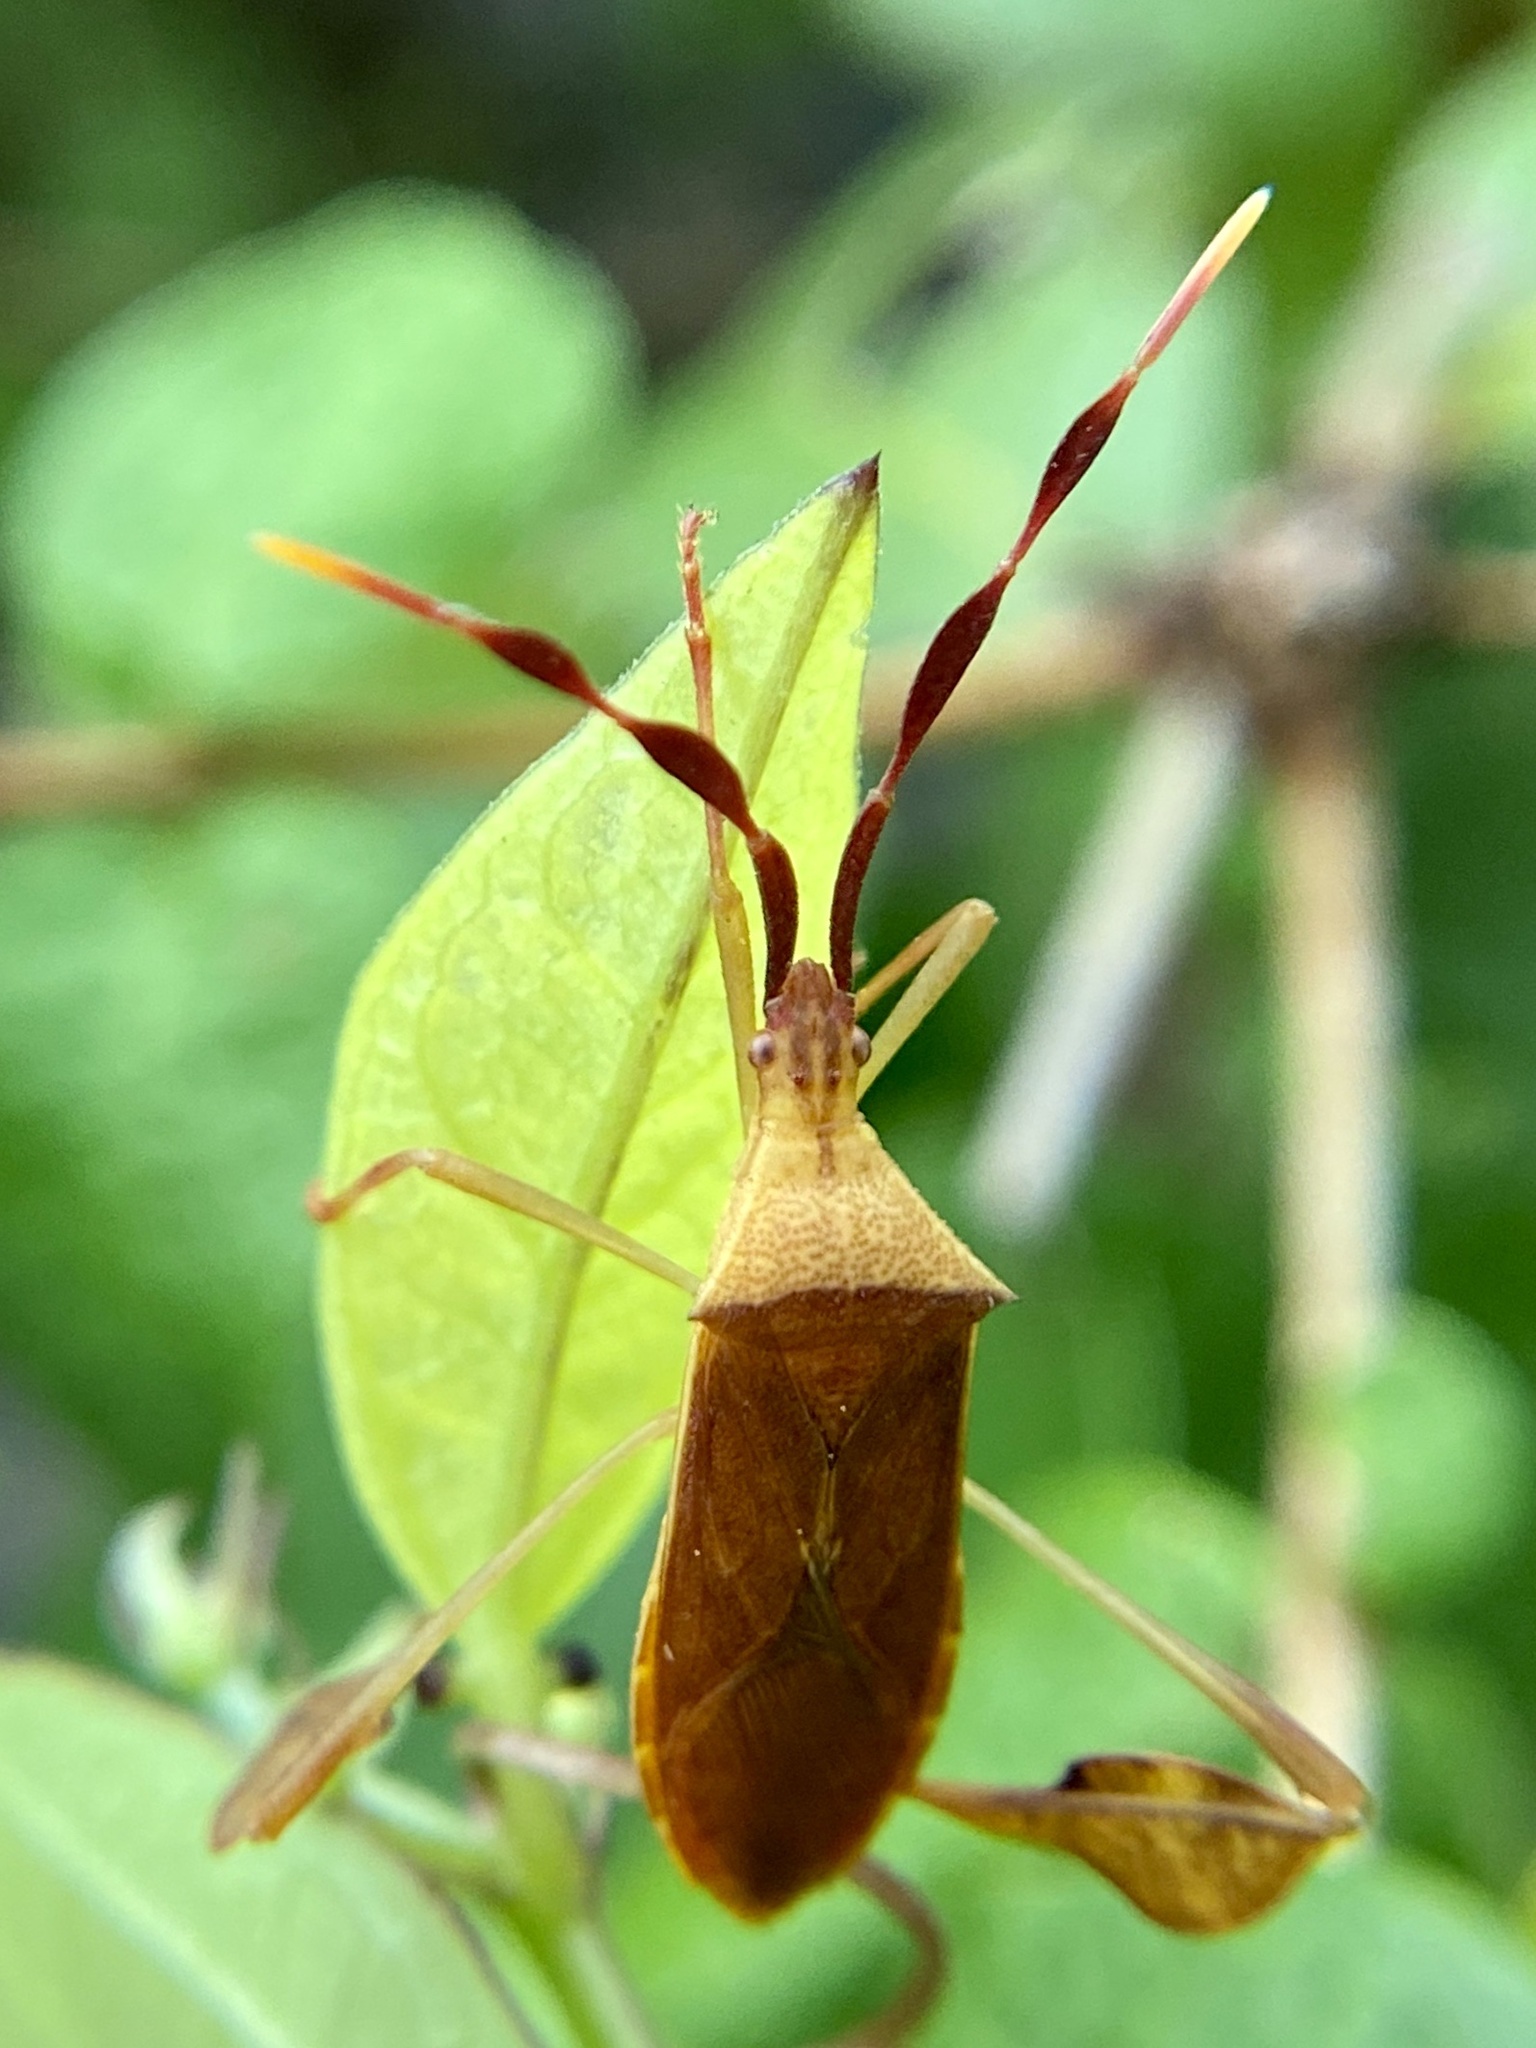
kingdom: Animalia
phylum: Arthropoda
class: Insecta
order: Hemiptera
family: Coreidae
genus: Chondrocera
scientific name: Chondrocera laticornis
